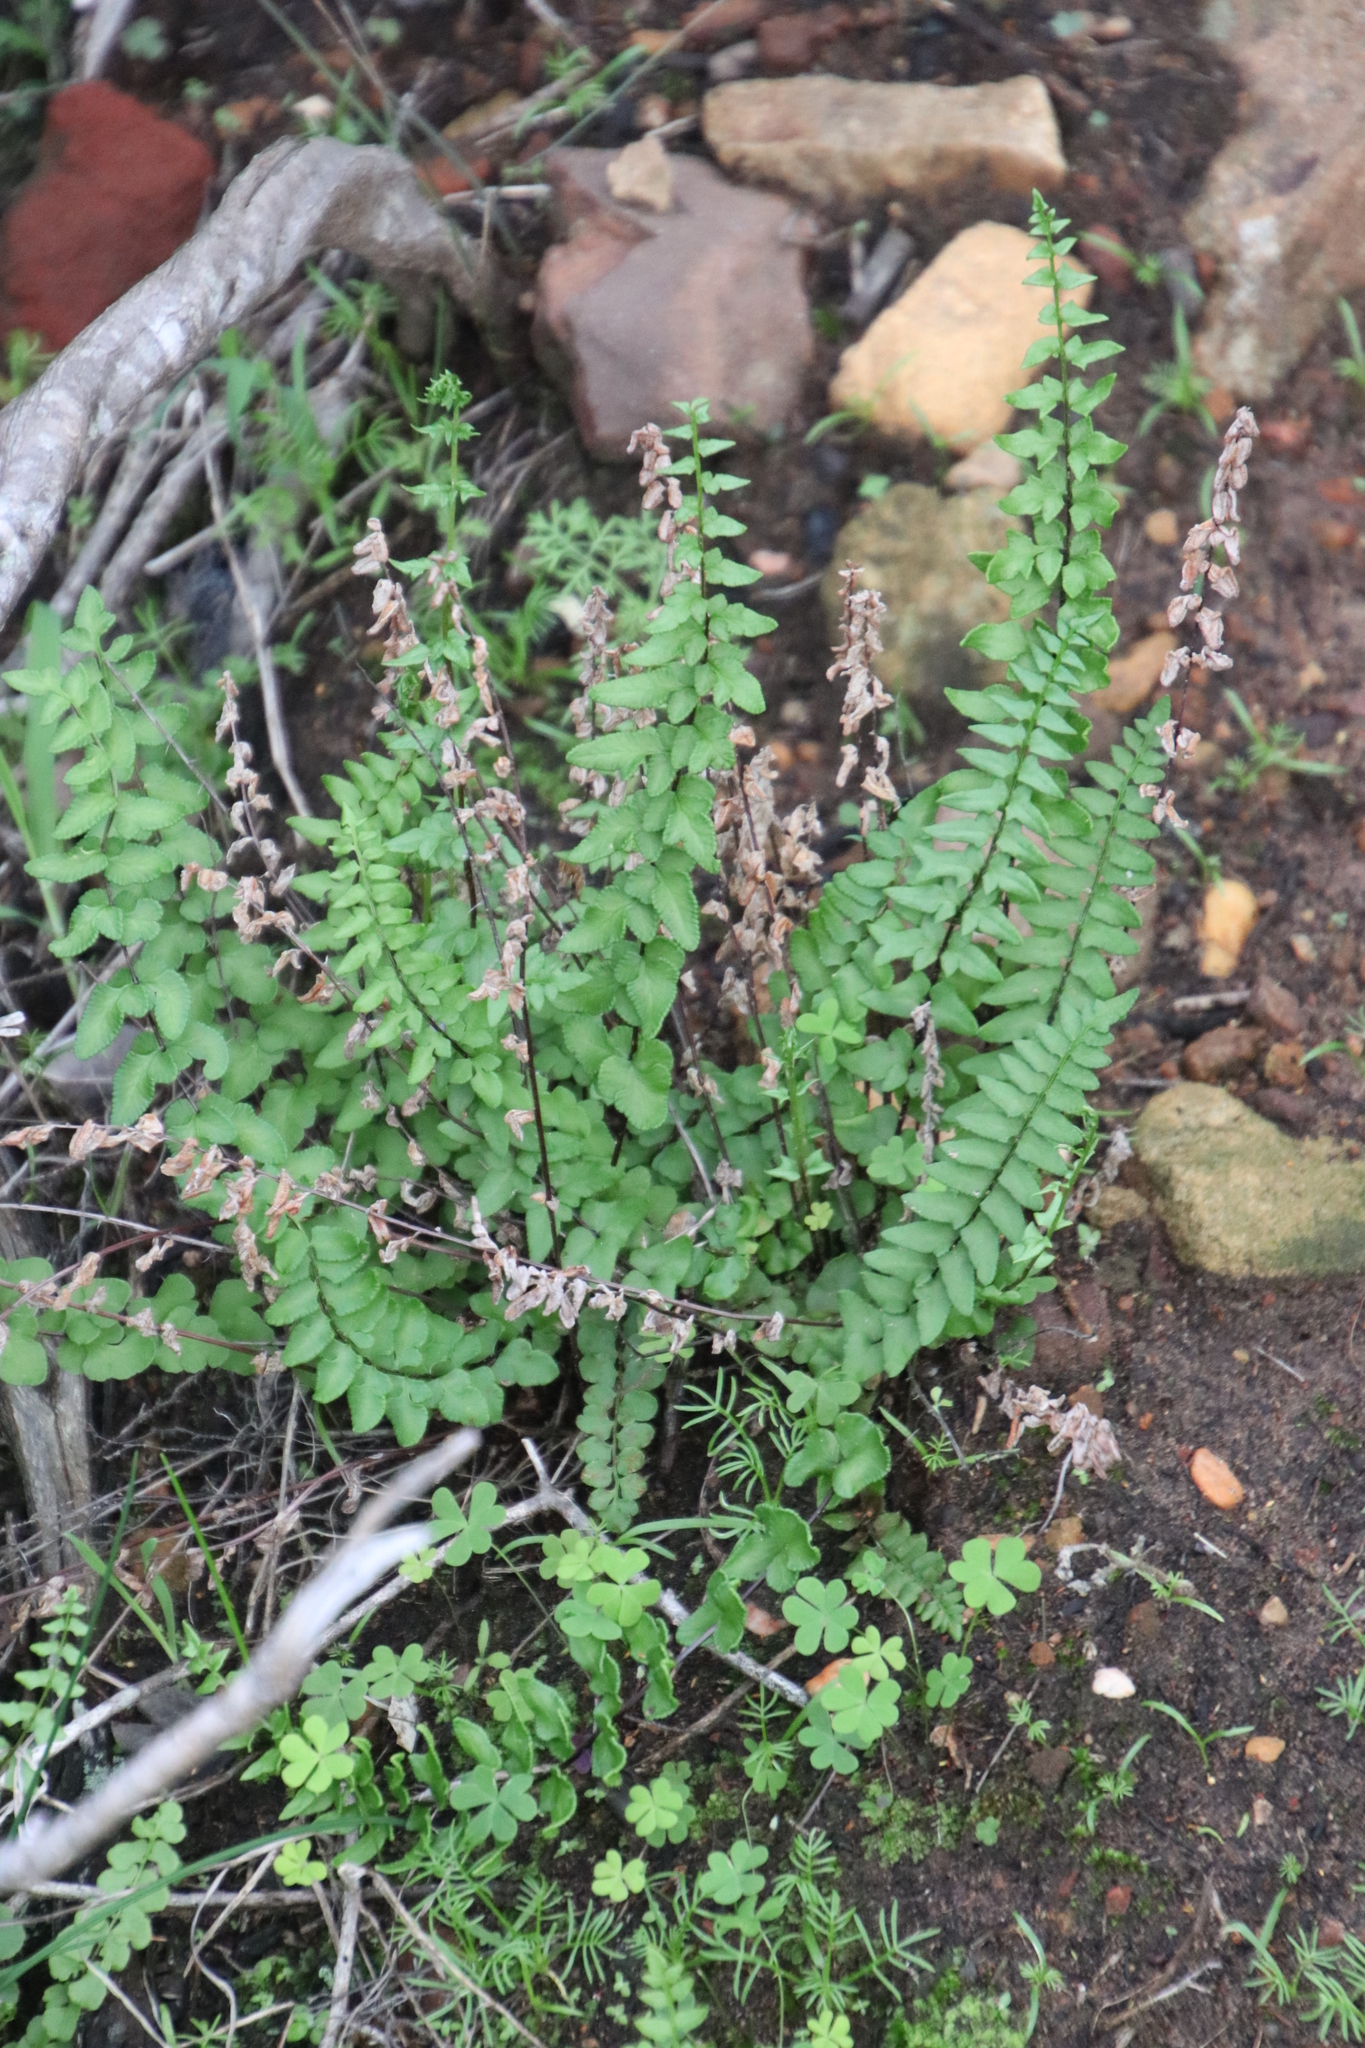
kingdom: Plantae
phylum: Tracheophyta
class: Polypodiopsida
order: Polypodiales
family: Pteridaceae
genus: Cheilanthes
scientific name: Cheilanthes hastata
